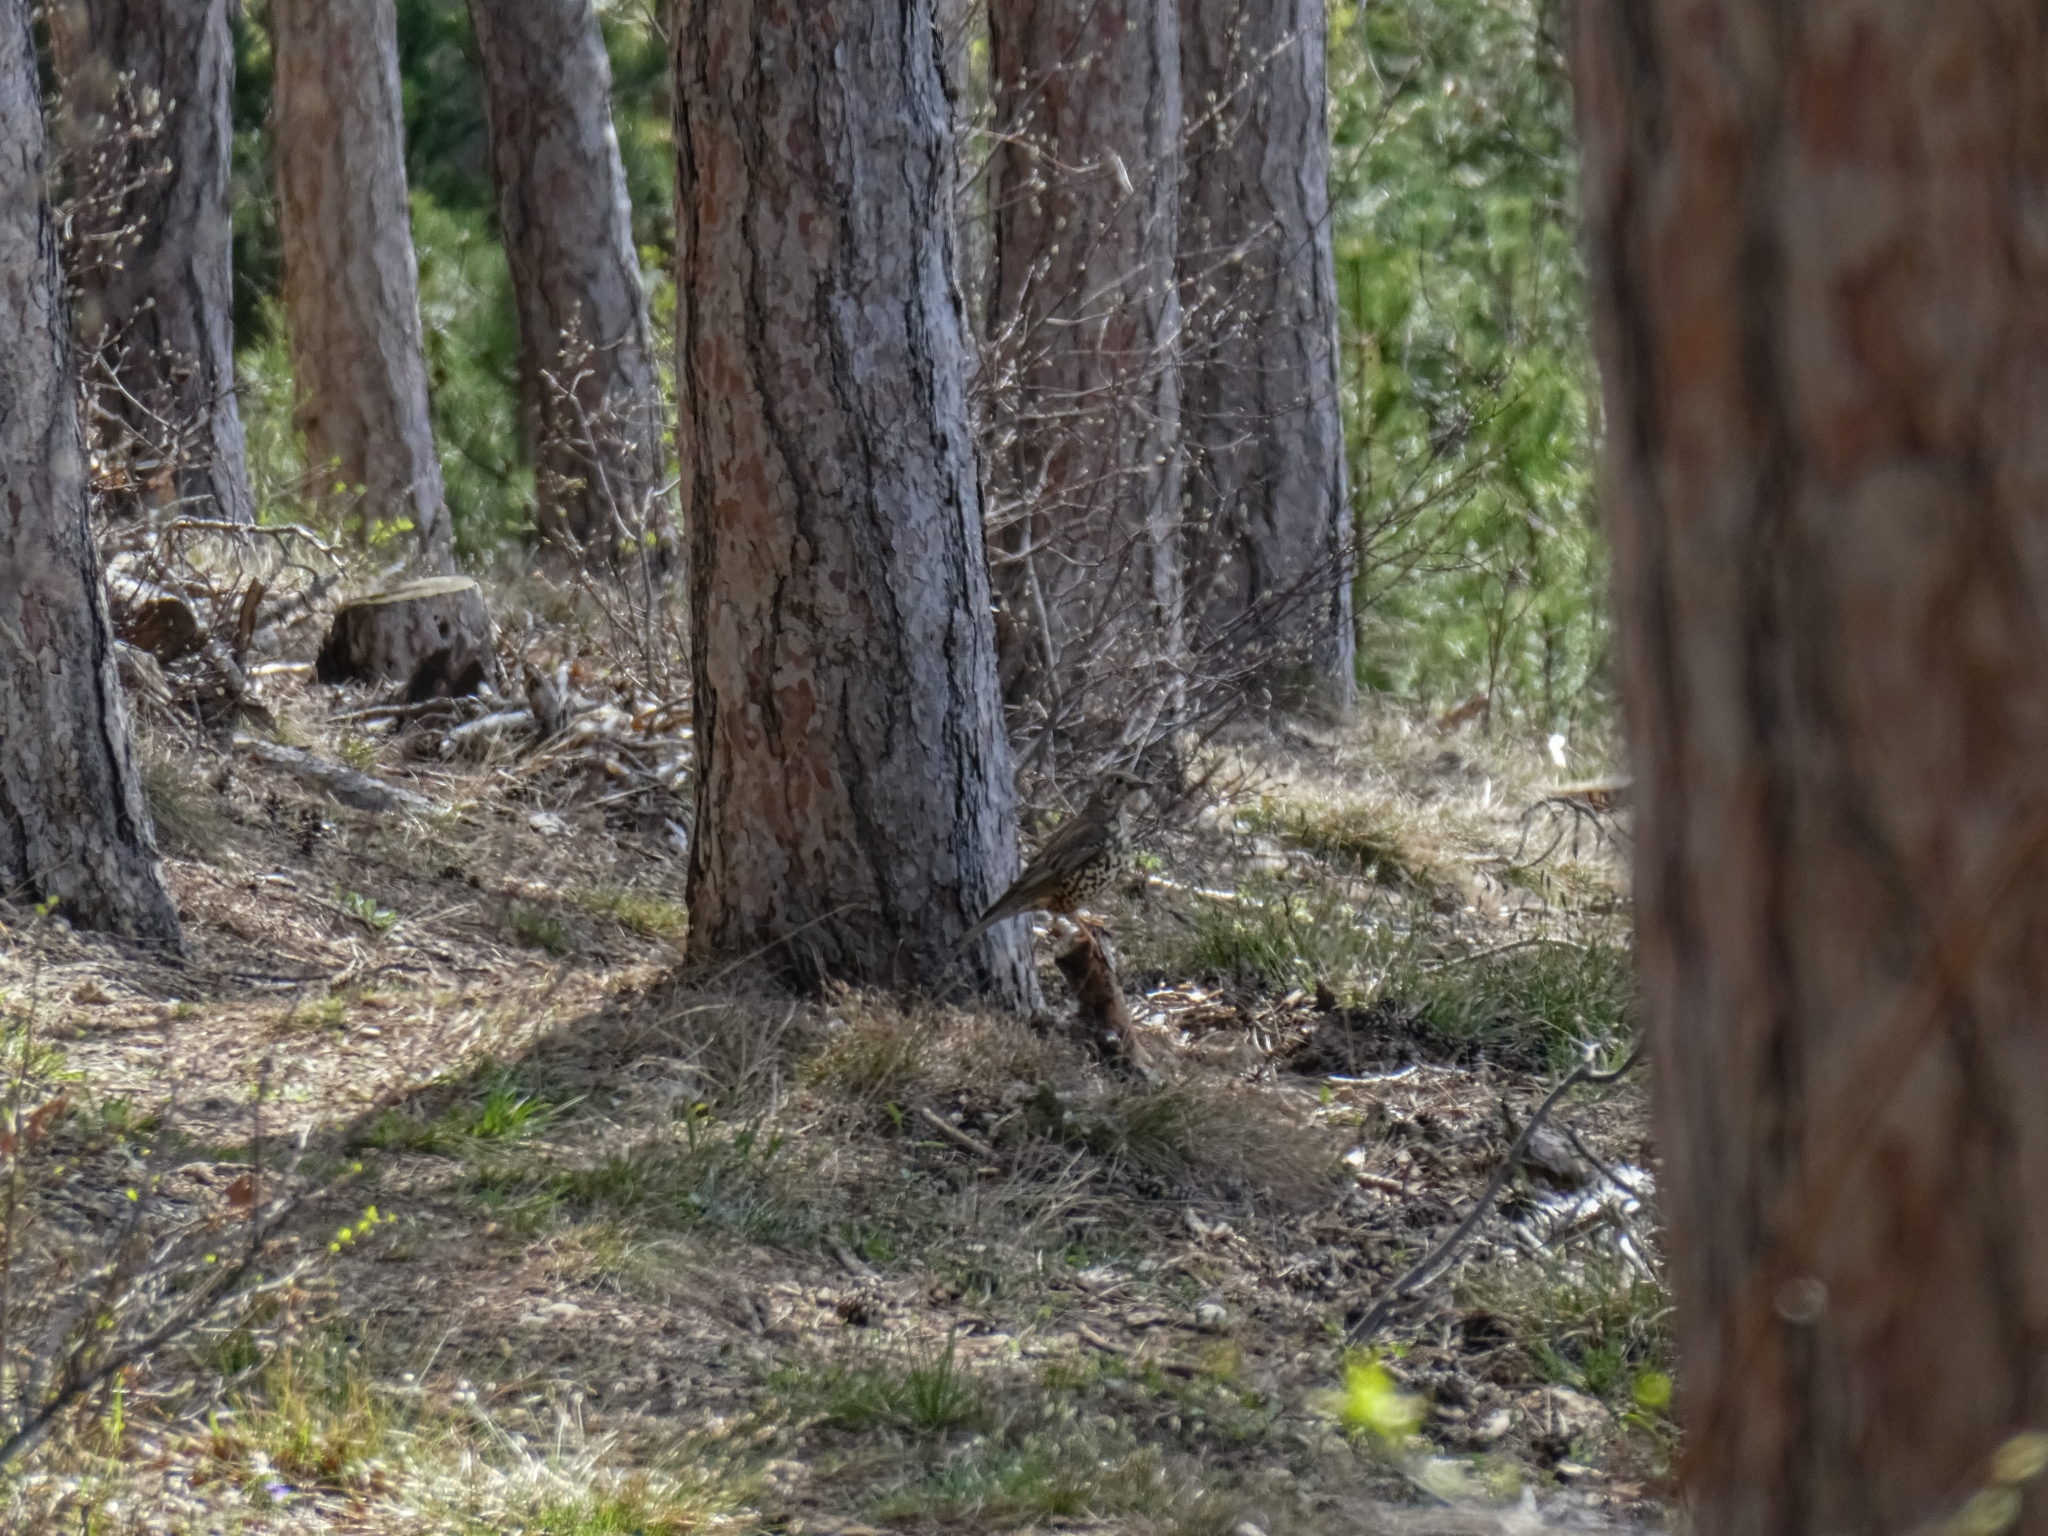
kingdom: Animalia
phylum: Chordata
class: Aves
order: Passeriformes
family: Turdidae
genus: Turdus
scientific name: Turdus viscivorus
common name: Mistle thrush
